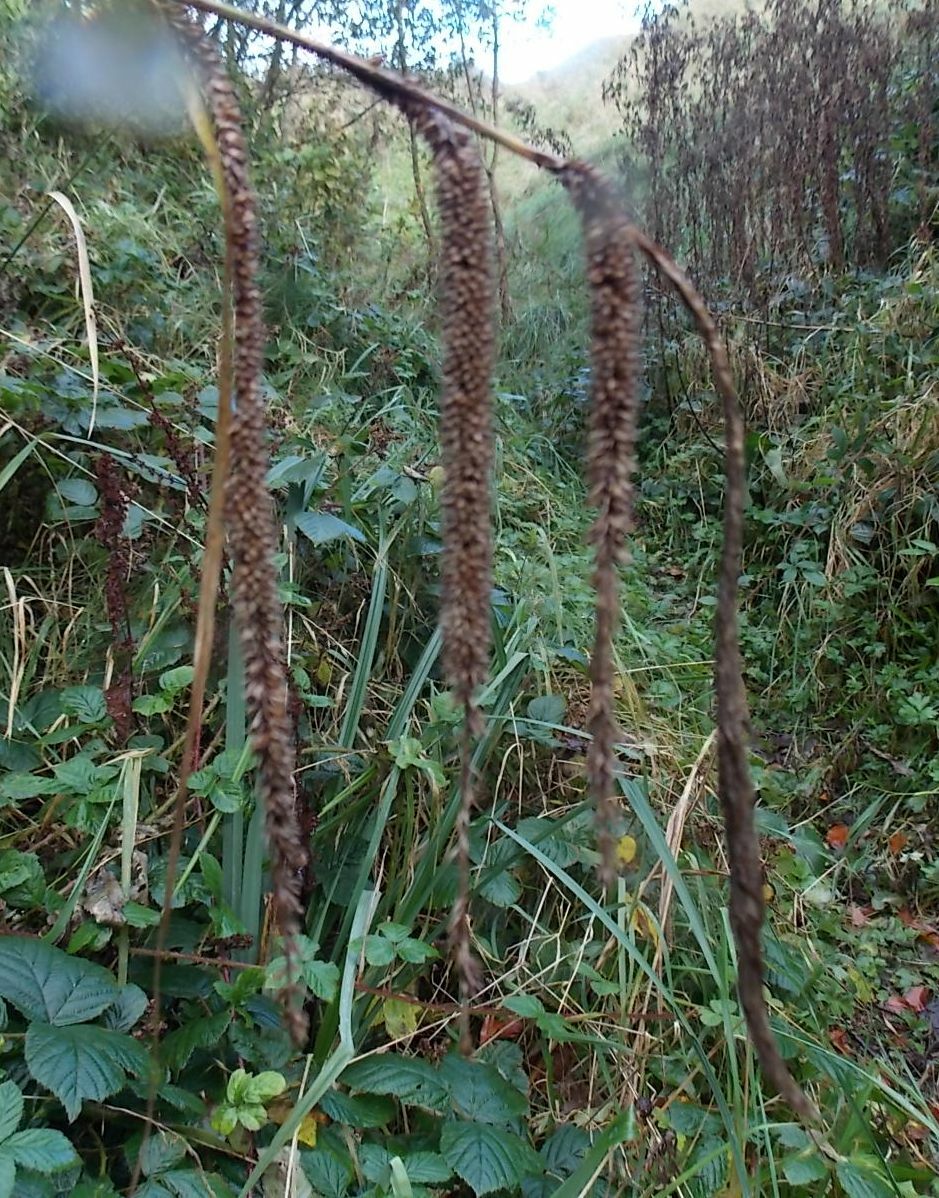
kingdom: Plantae
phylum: Tracheophyta
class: Liliopsida
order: Poales
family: Cyperaceae
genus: Carex
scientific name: Carex pendula
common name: Pendulous sedge
